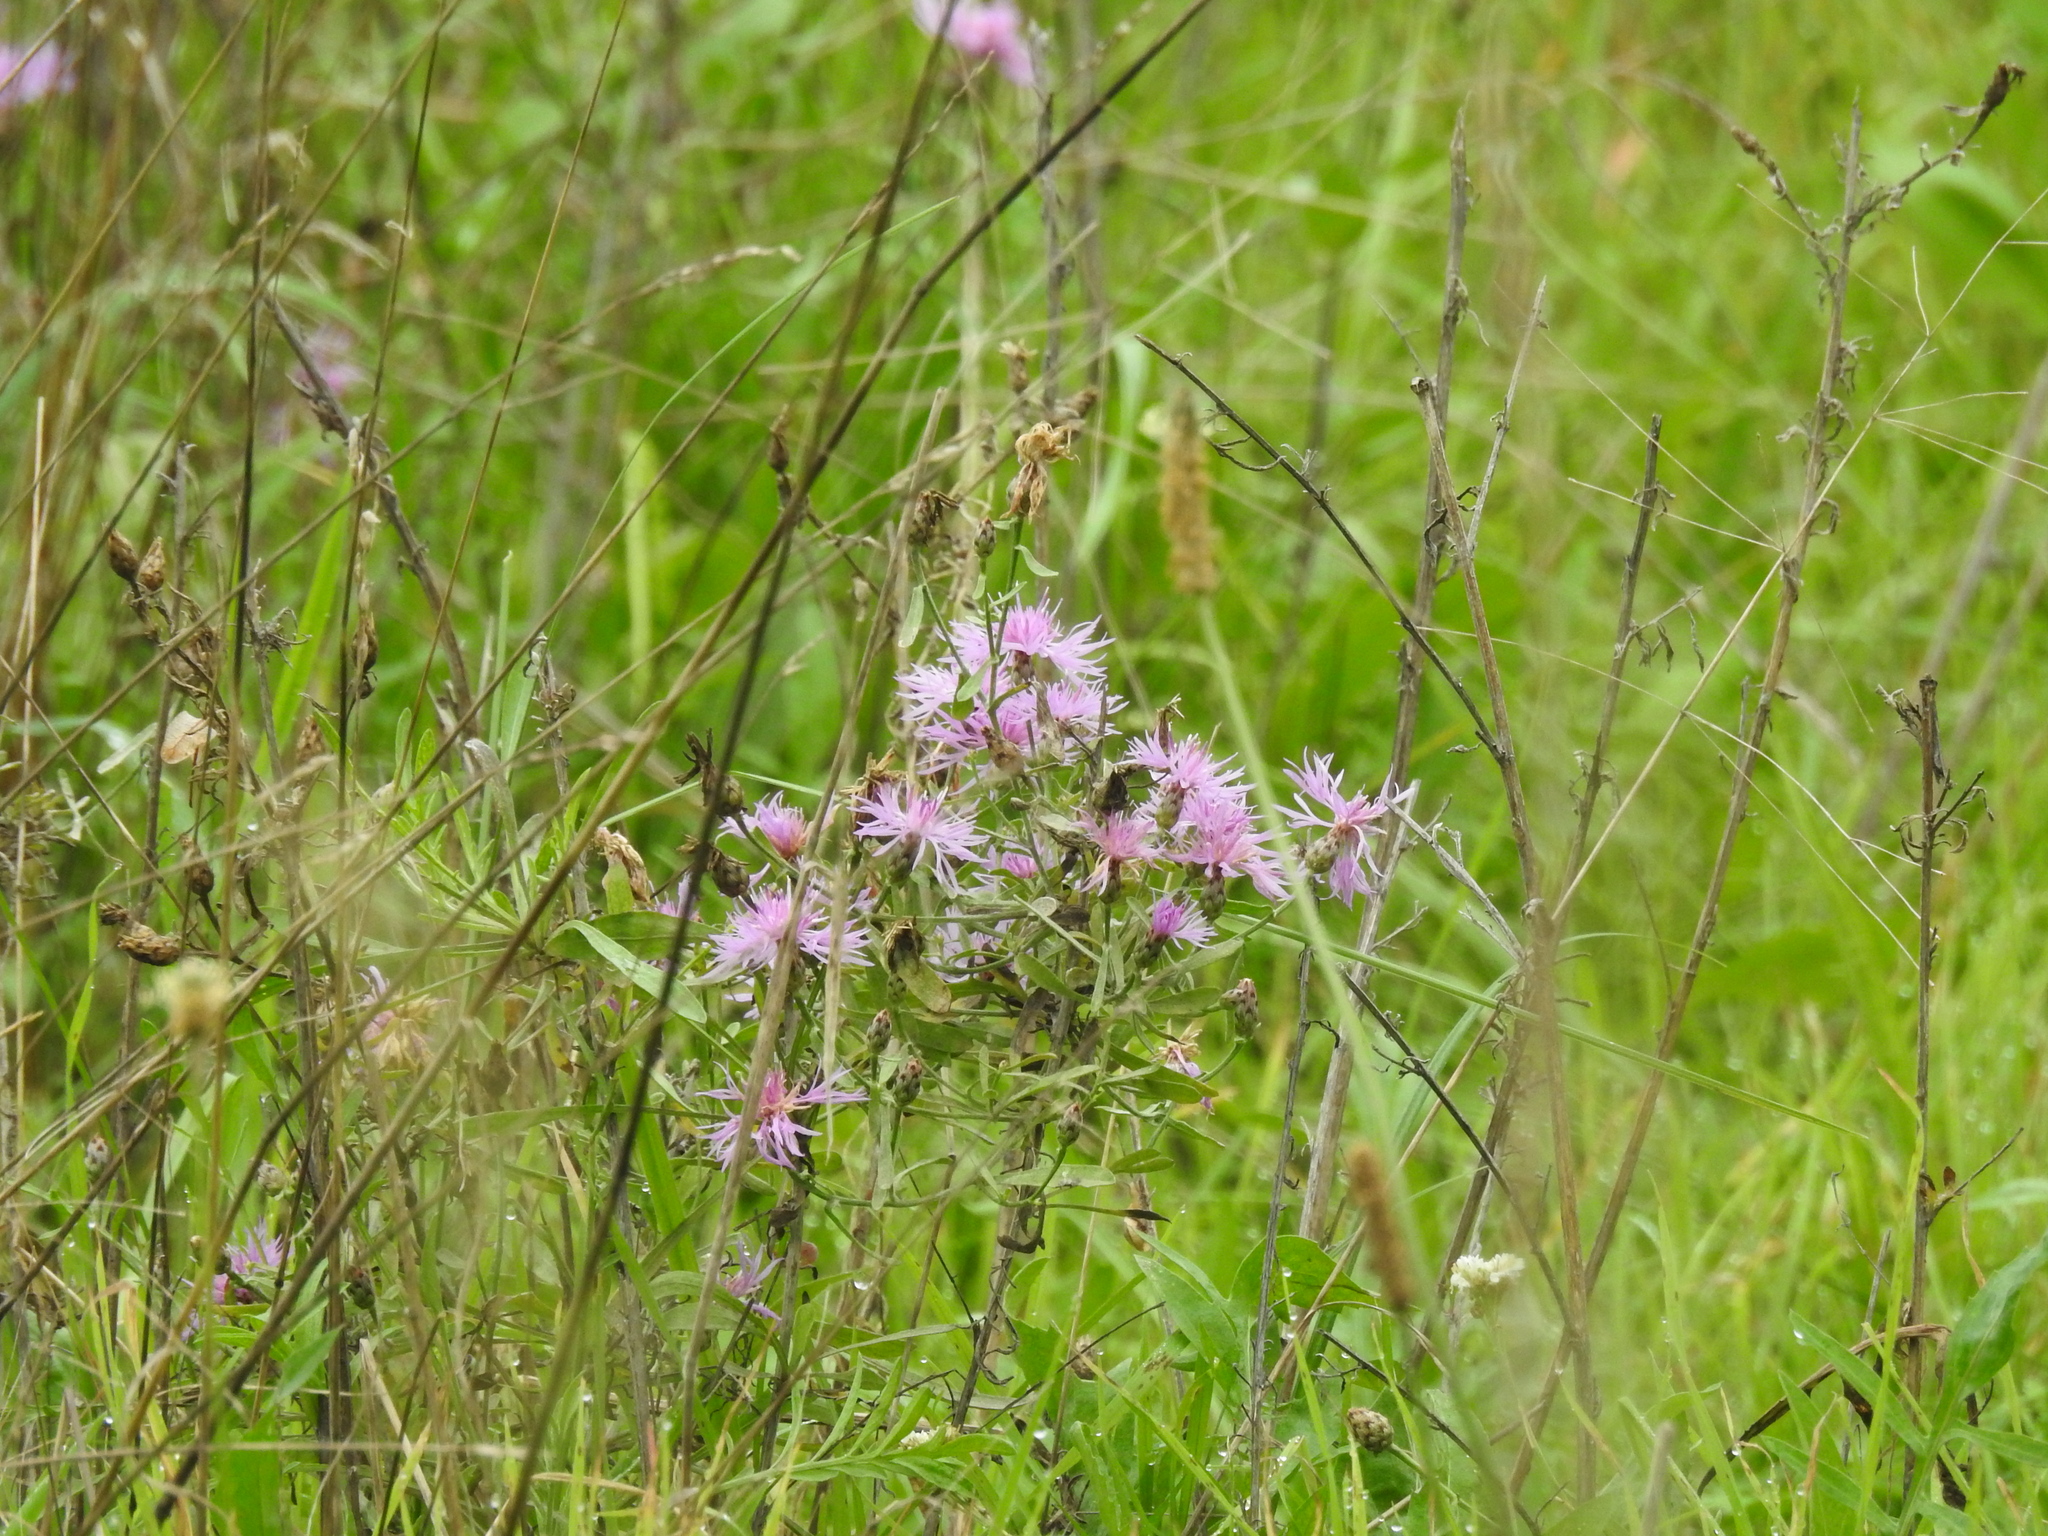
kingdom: Plantae
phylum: Tracheophyta
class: Magnoliopsida
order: Asterales
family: Asteraceae
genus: Centaurea
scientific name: Centaurea stoebe
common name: Spotted knapweed
